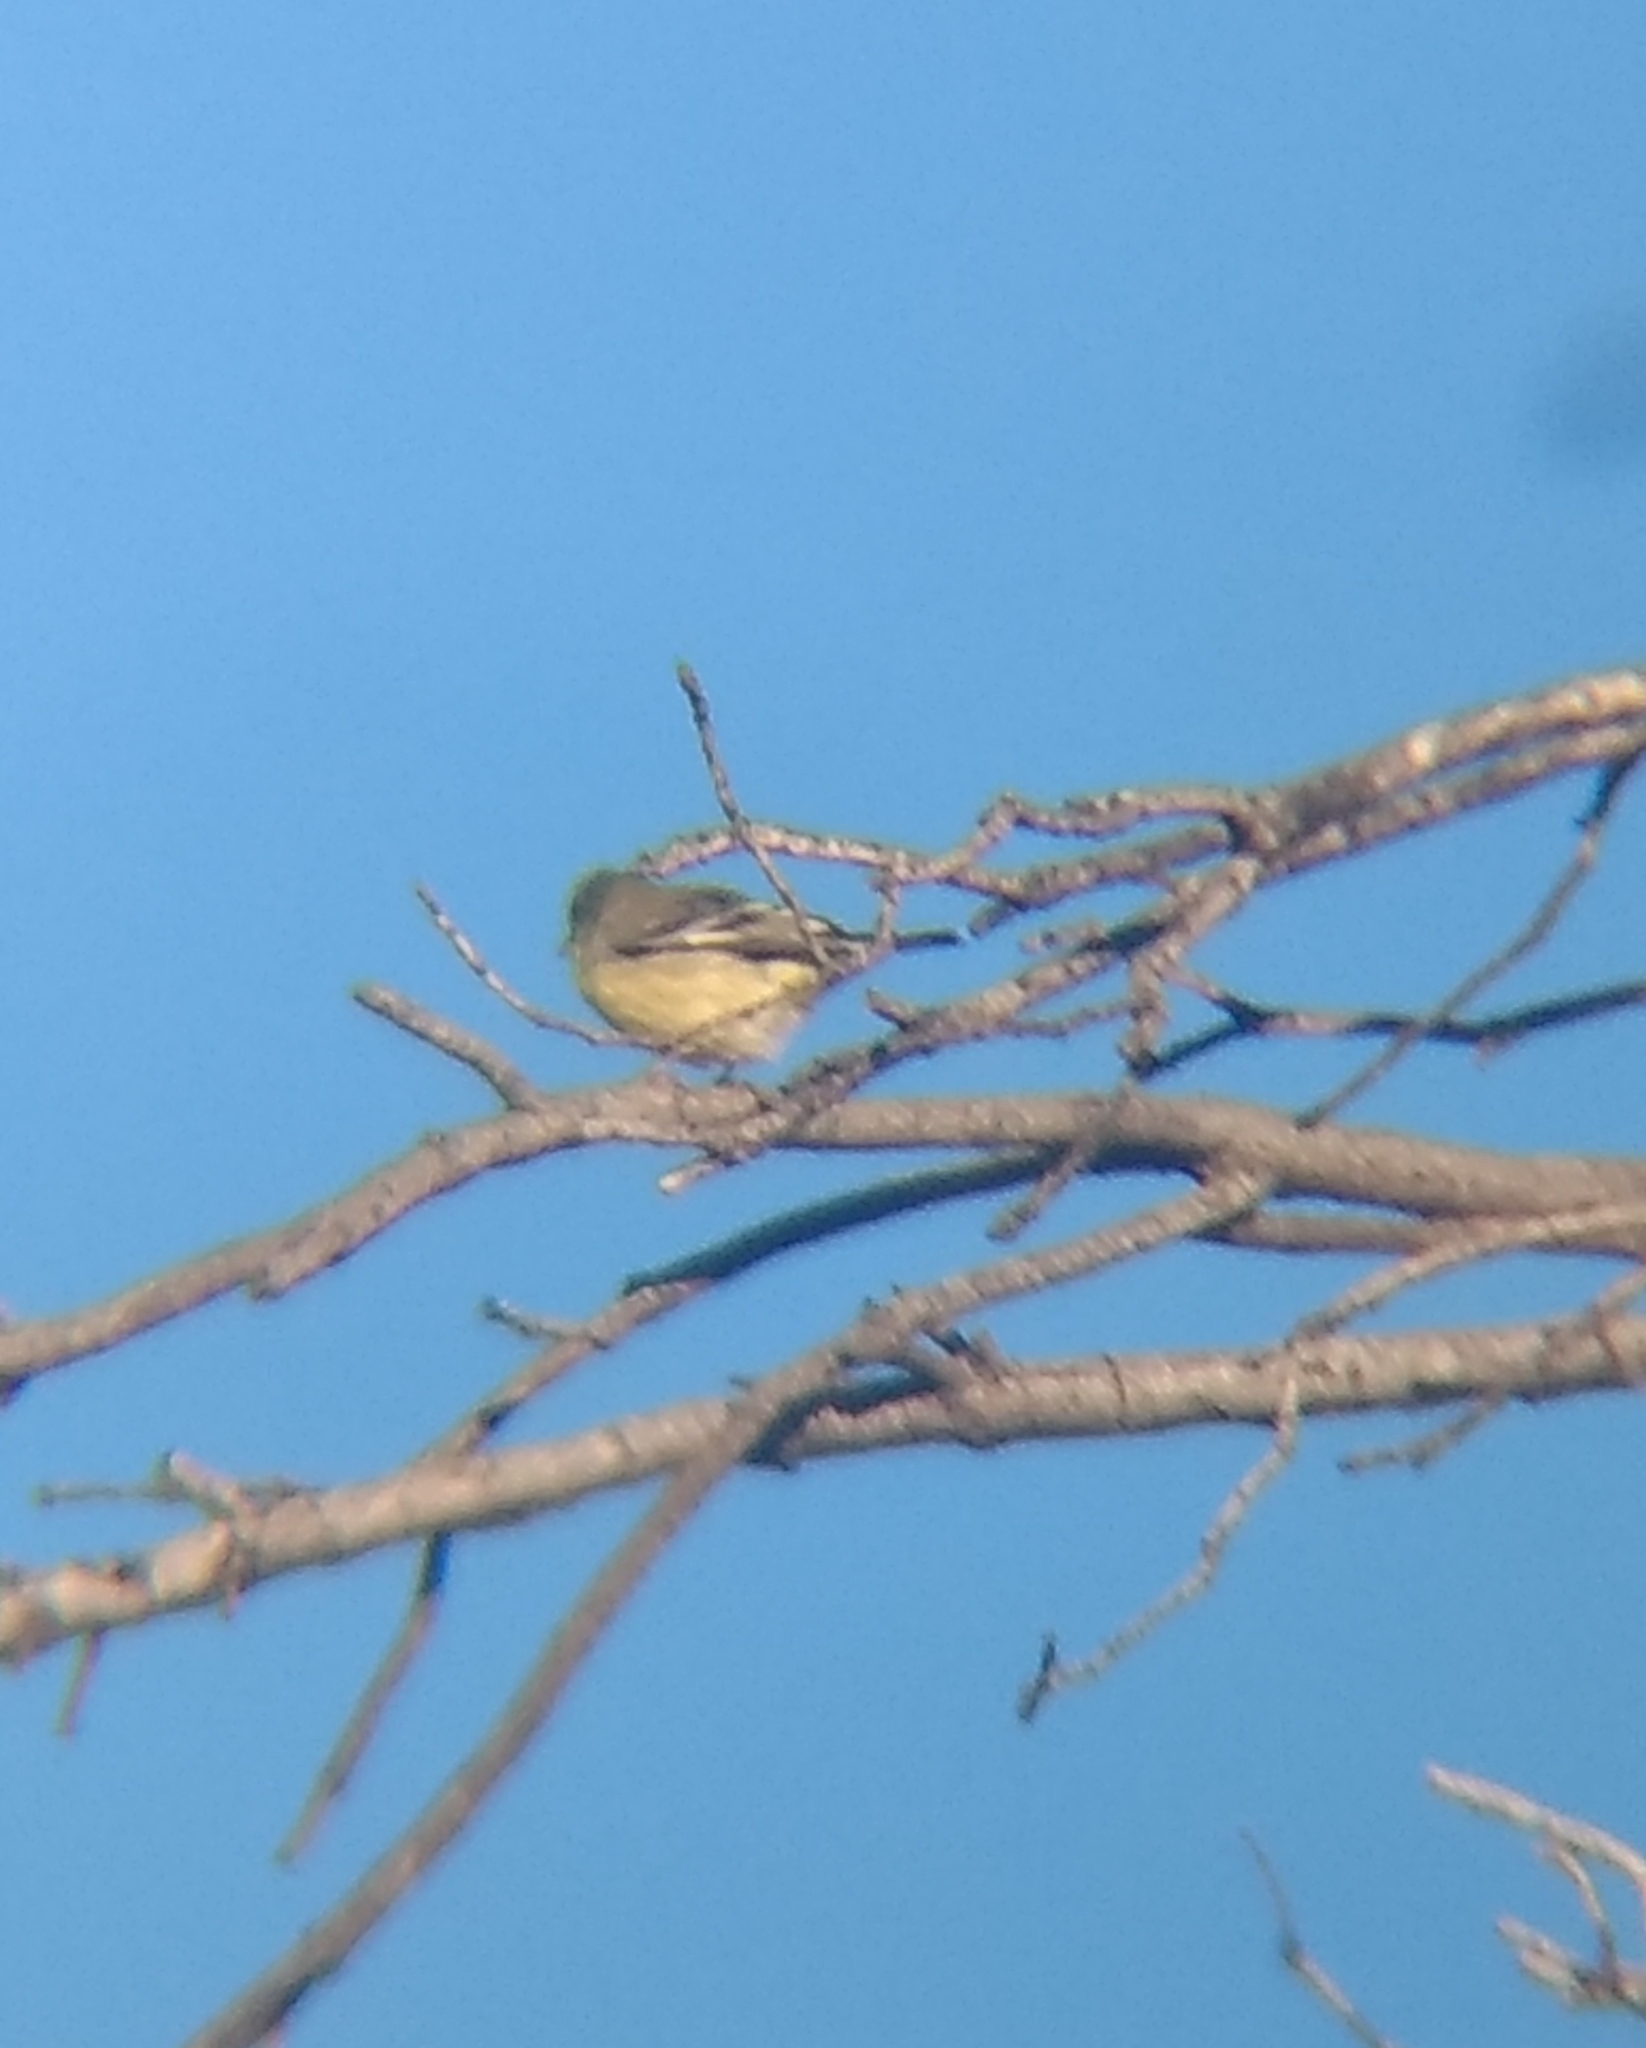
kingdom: Animalia
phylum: Chordata
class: Aves
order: Passeriformes
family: Fringillidae
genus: Spinus
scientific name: Spinus psaltria
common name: Lesser goldfinch
